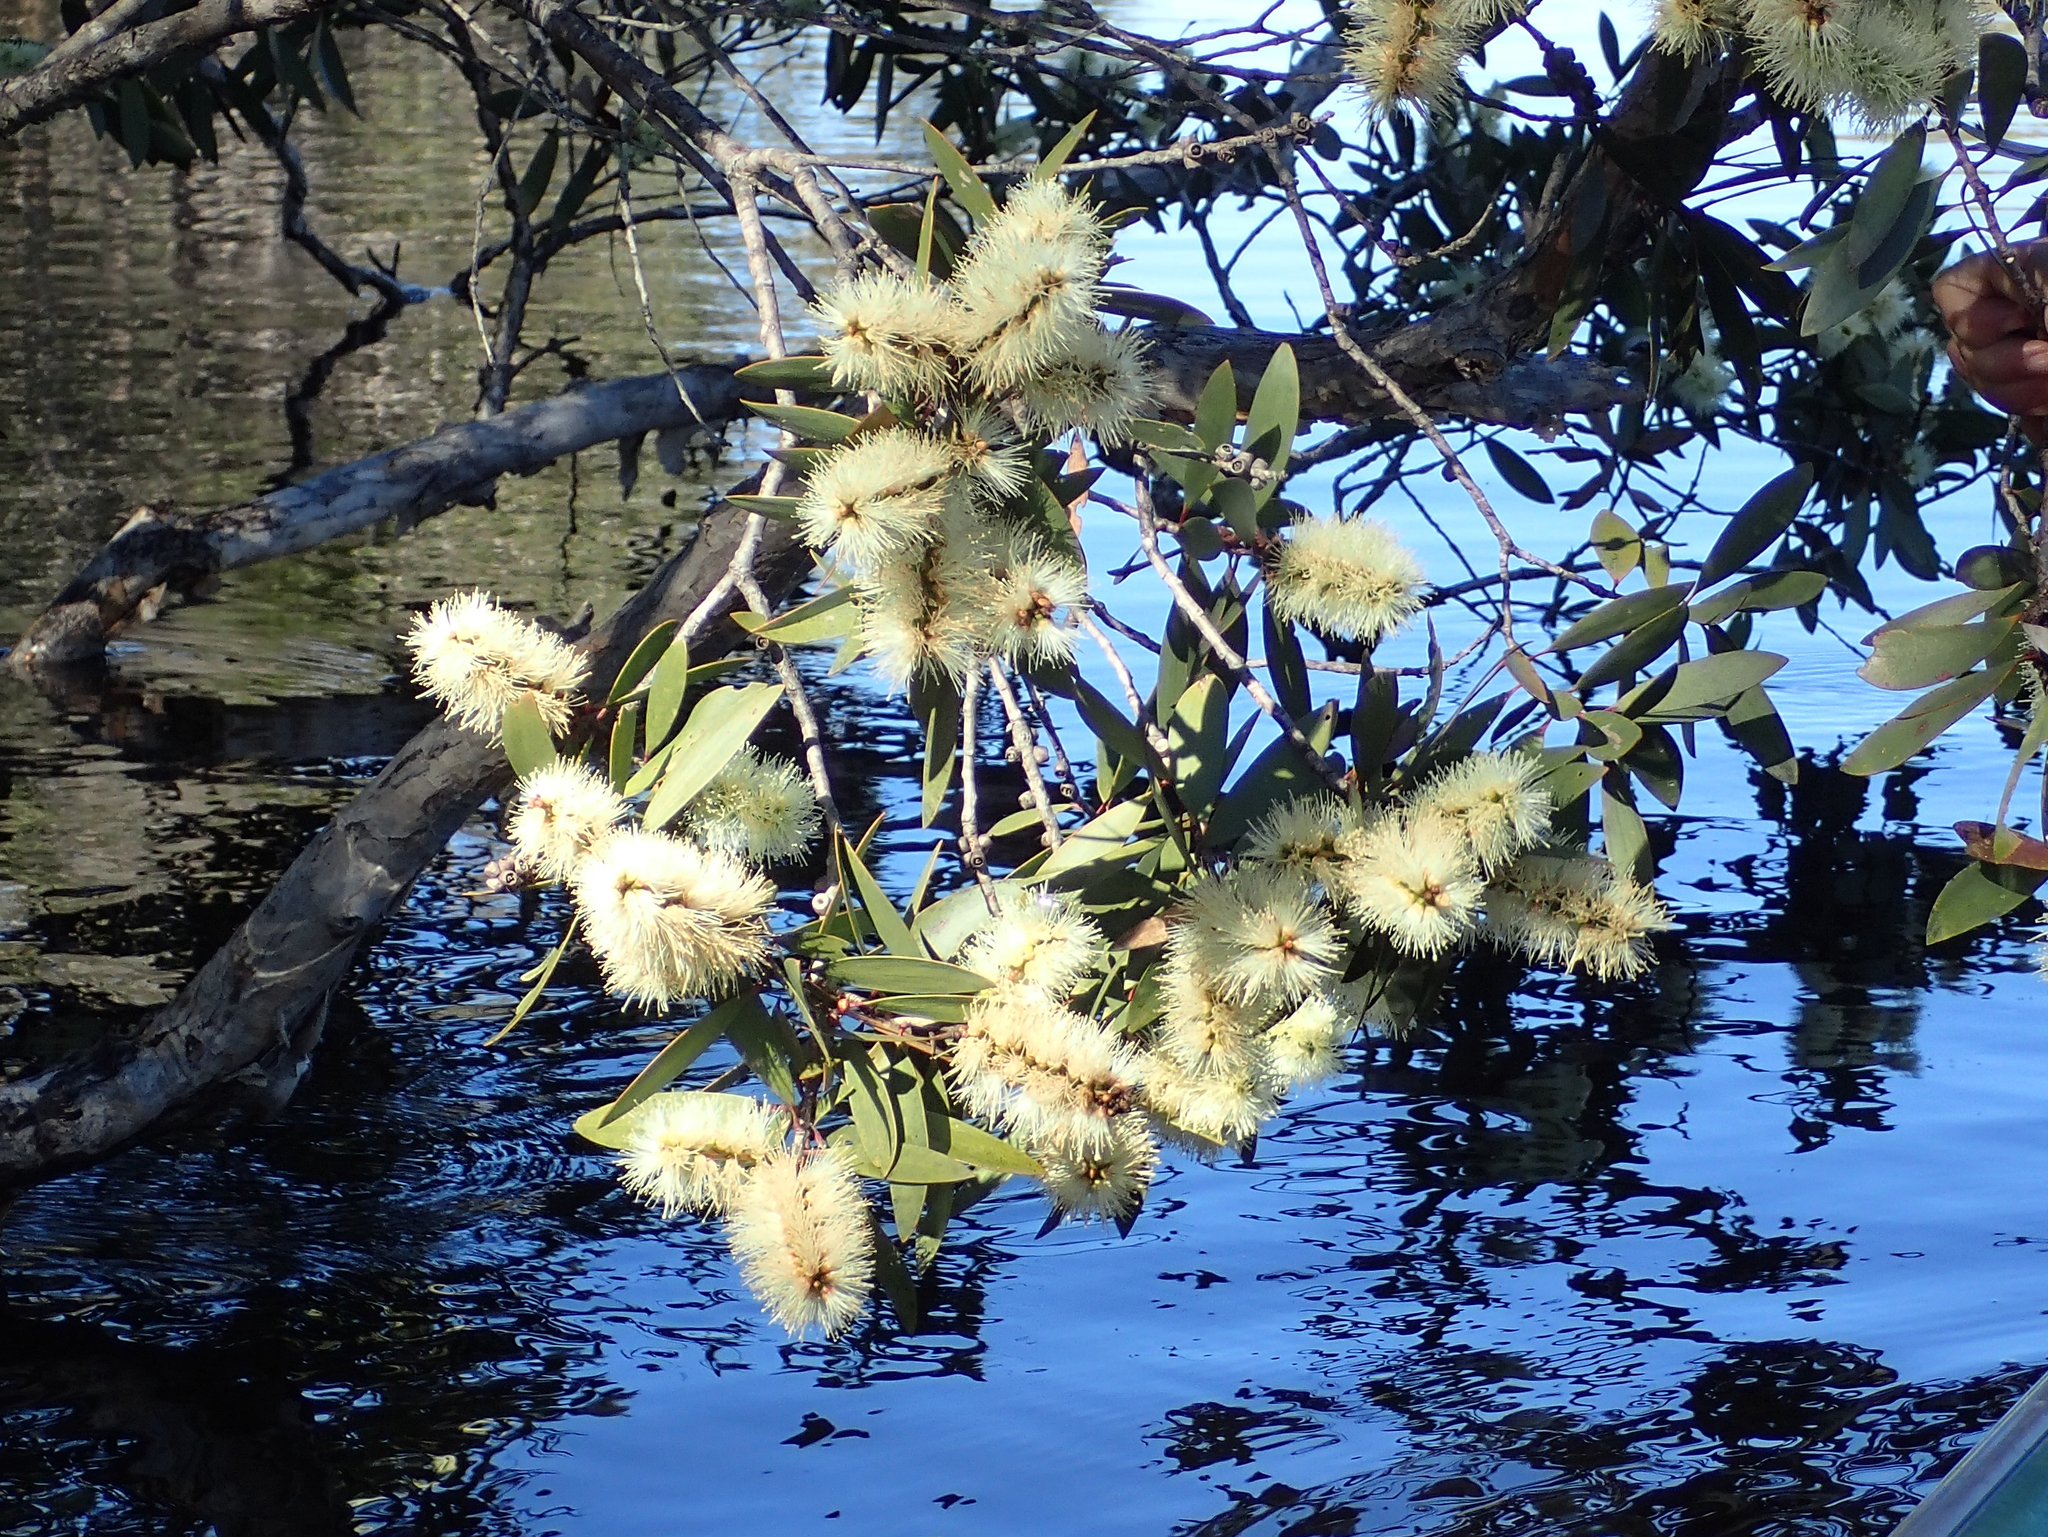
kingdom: Plantae
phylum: Tracheophyta
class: Magnoliopsida
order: Myrtales
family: Myrtaceae
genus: Melaleuca
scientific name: Melaleuca quinquenervia
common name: Punktree
